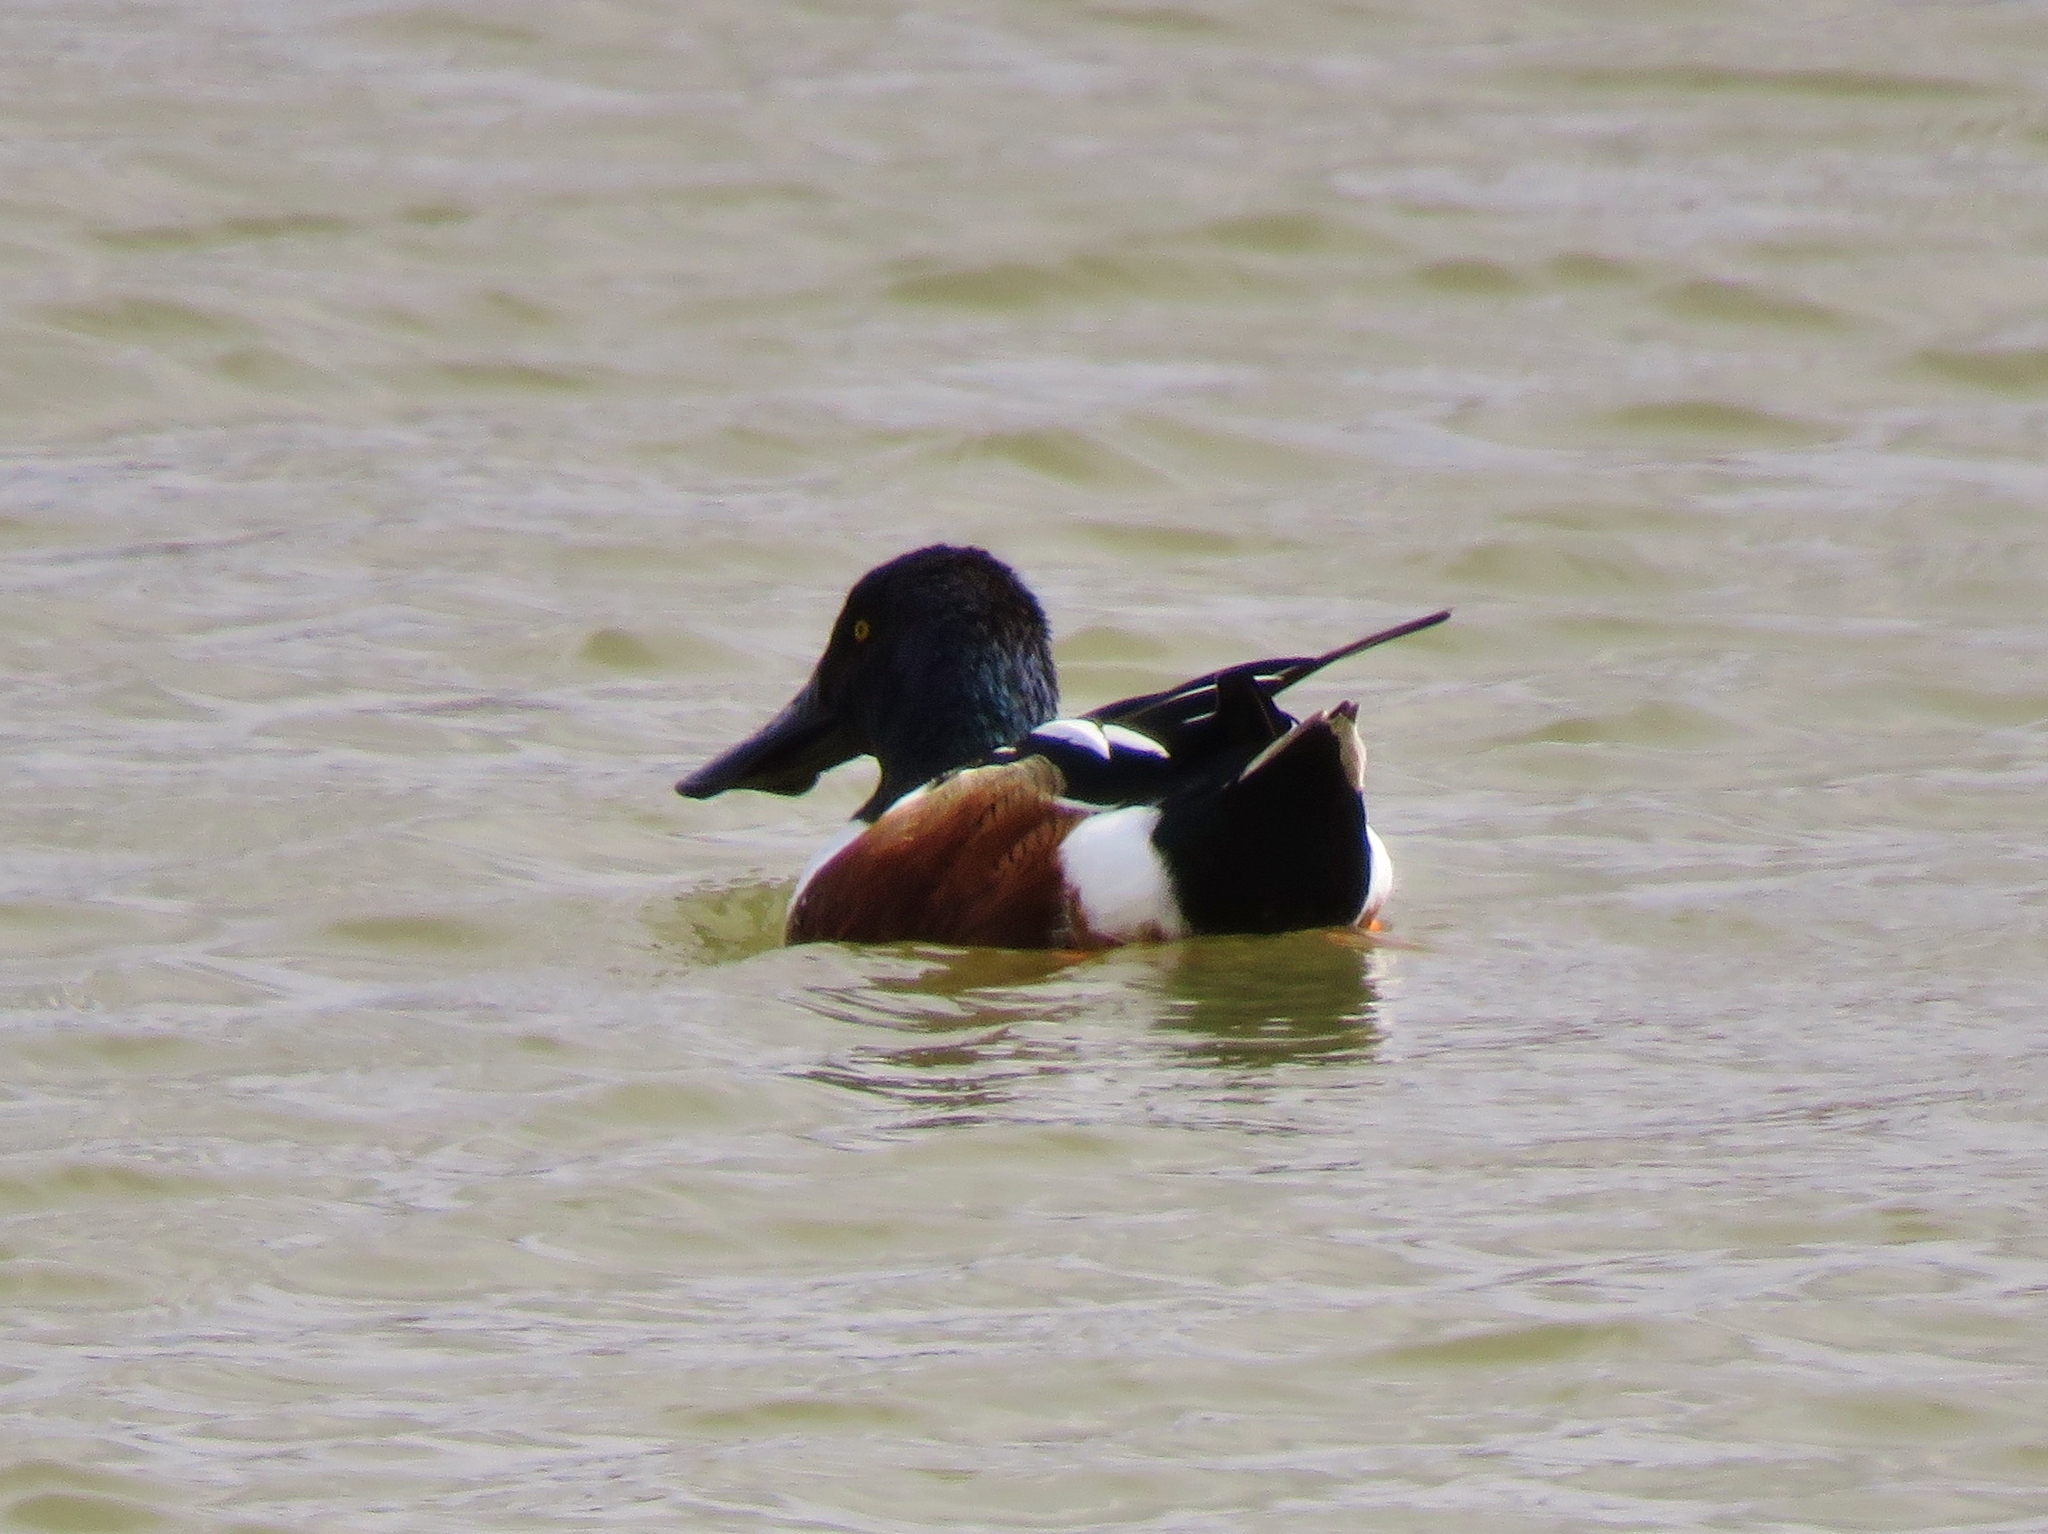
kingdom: Animalia
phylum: Chordata
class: Aves
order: Anseriformes
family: Anatidae
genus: Spatula
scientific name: Spatula clypeata
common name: Northern shoveler
